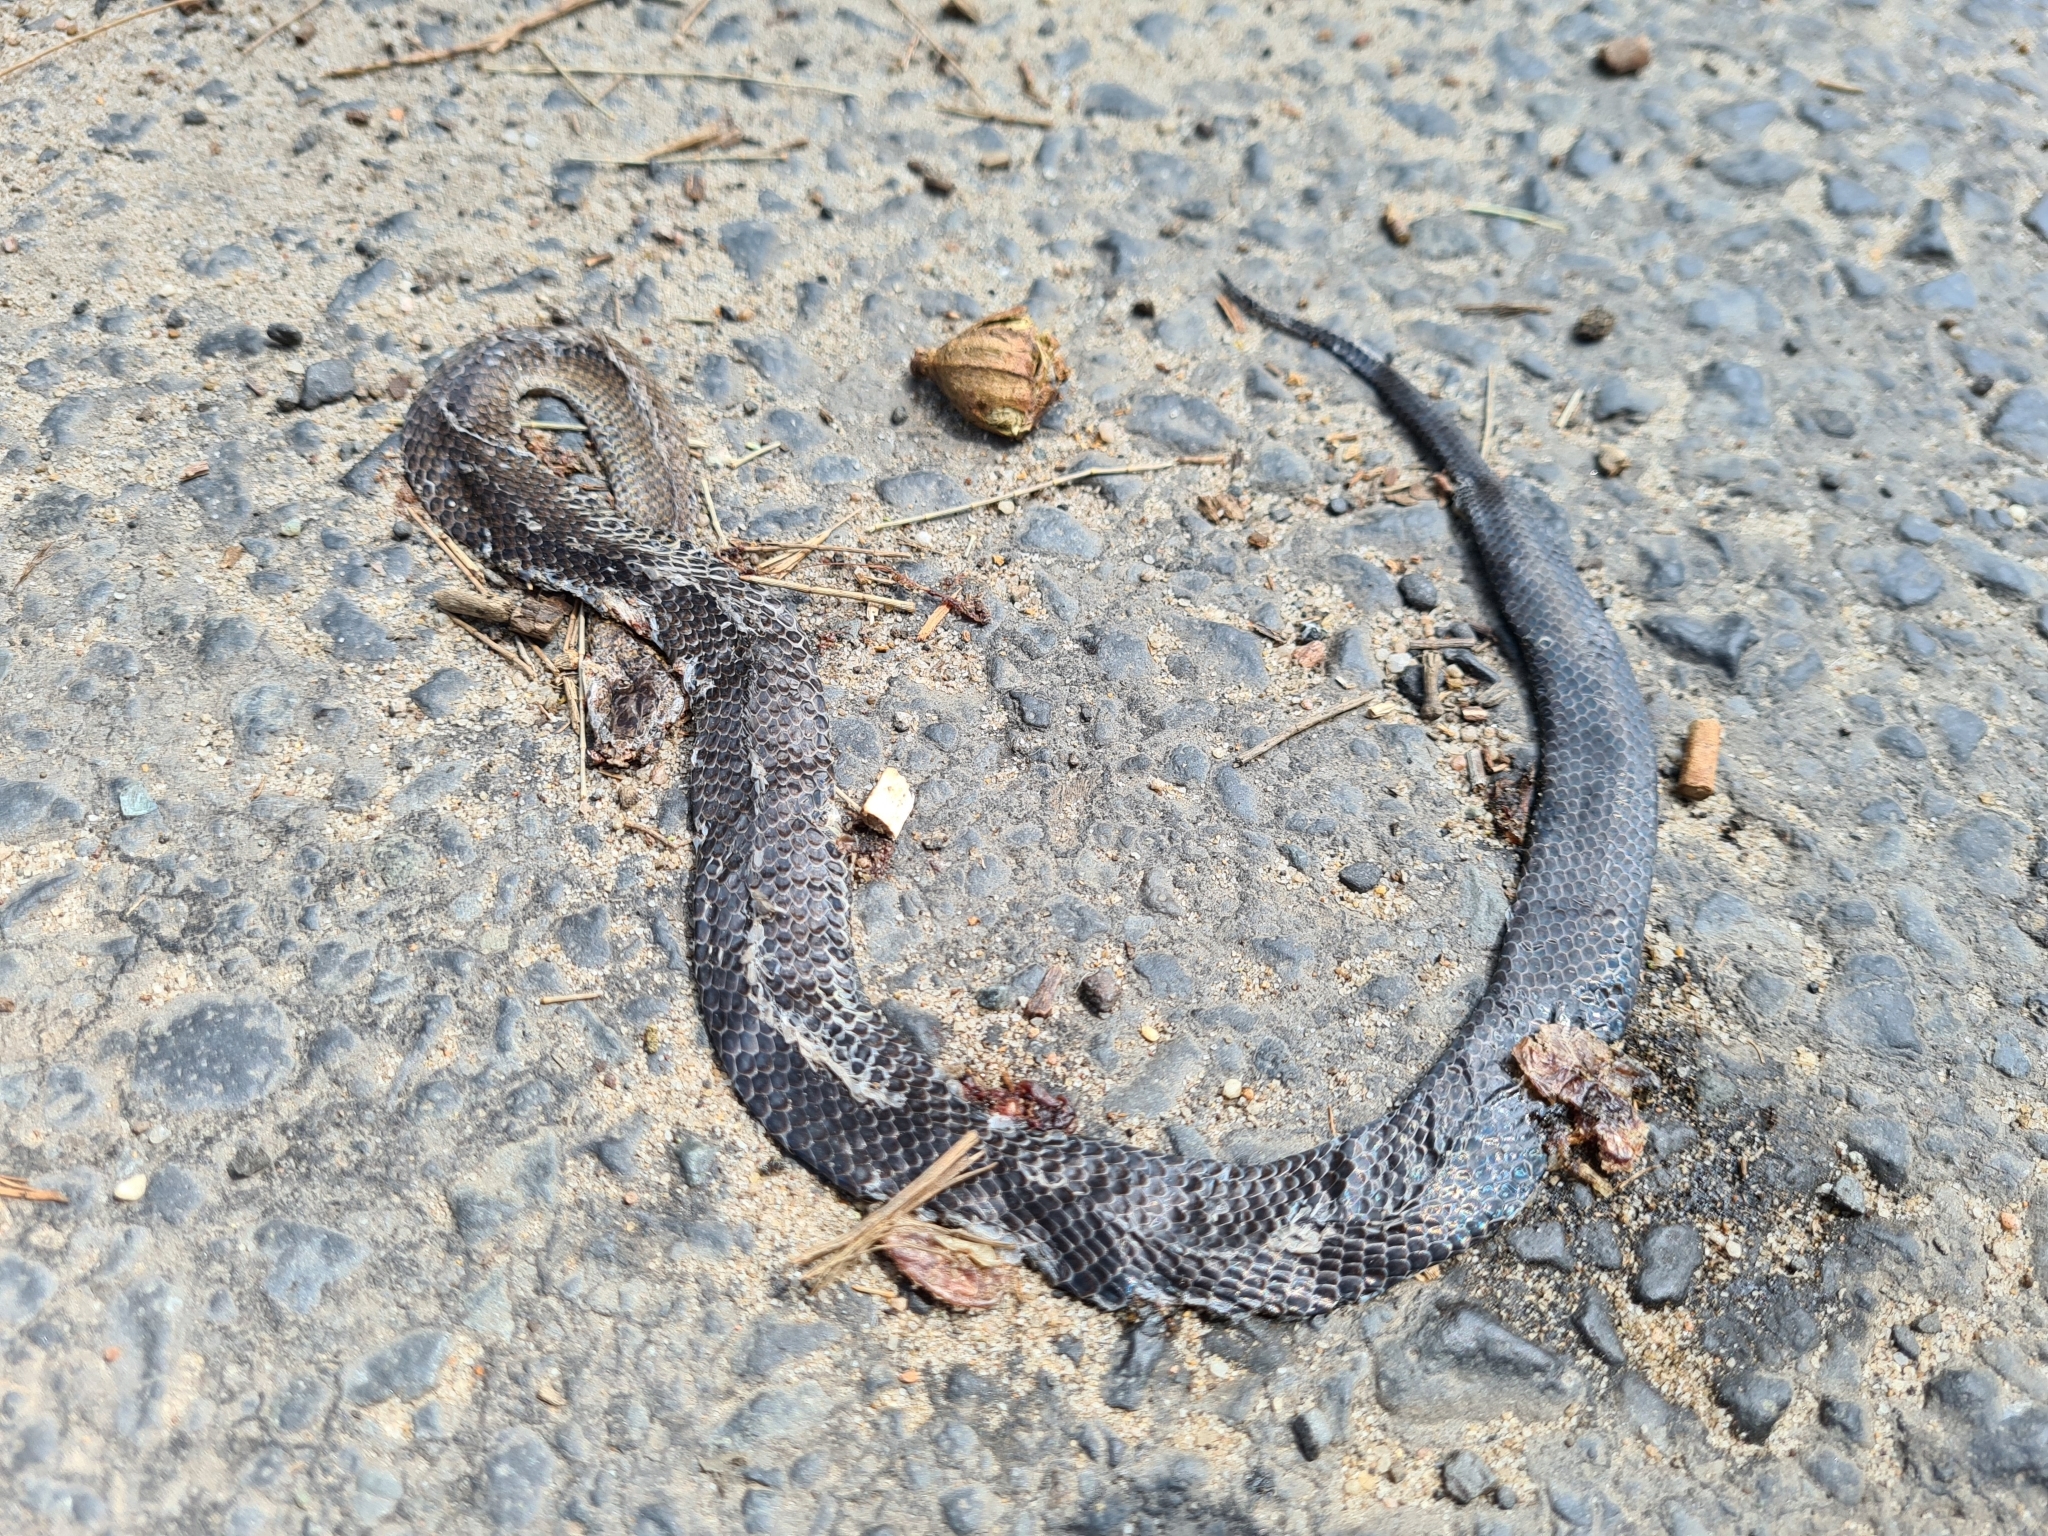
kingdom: Animalia
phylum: Chordata
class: Squamata
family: Elapidae
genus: Cacophis
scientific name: Cacophis squamulosus
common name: Golden crowned snake
